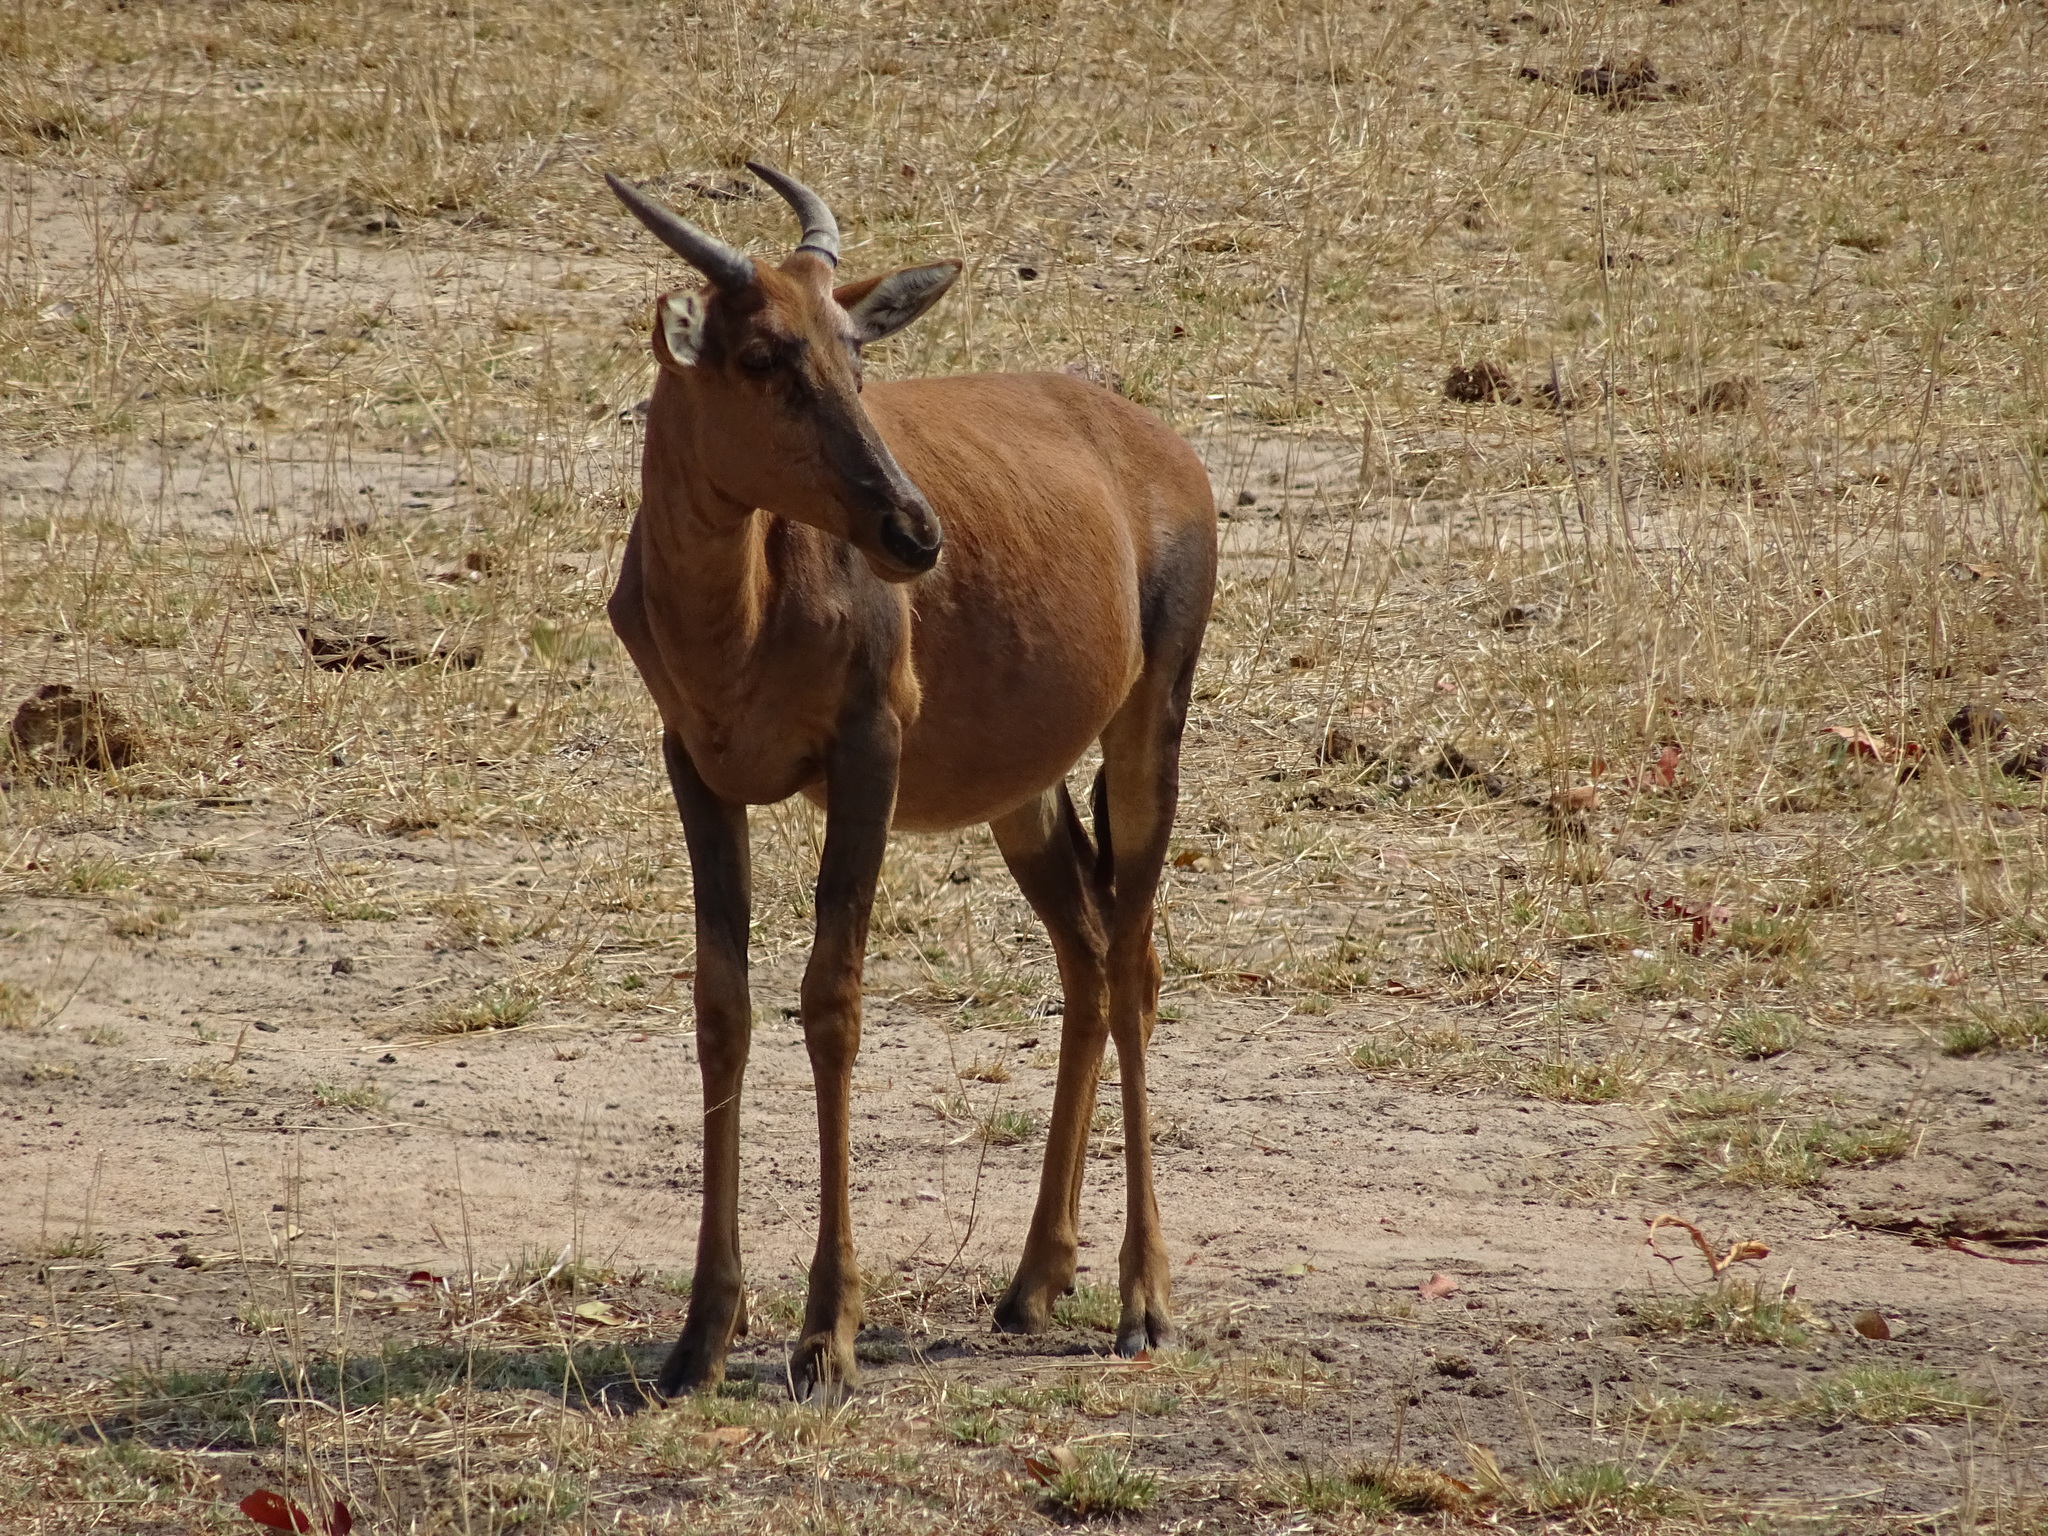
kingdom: Animalia
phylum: Chordata
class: Mammalia
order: Artiodactyla
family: Bovidae
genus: Damaliscus
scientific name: Damaliscus lunatus
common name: Common tsessebe
